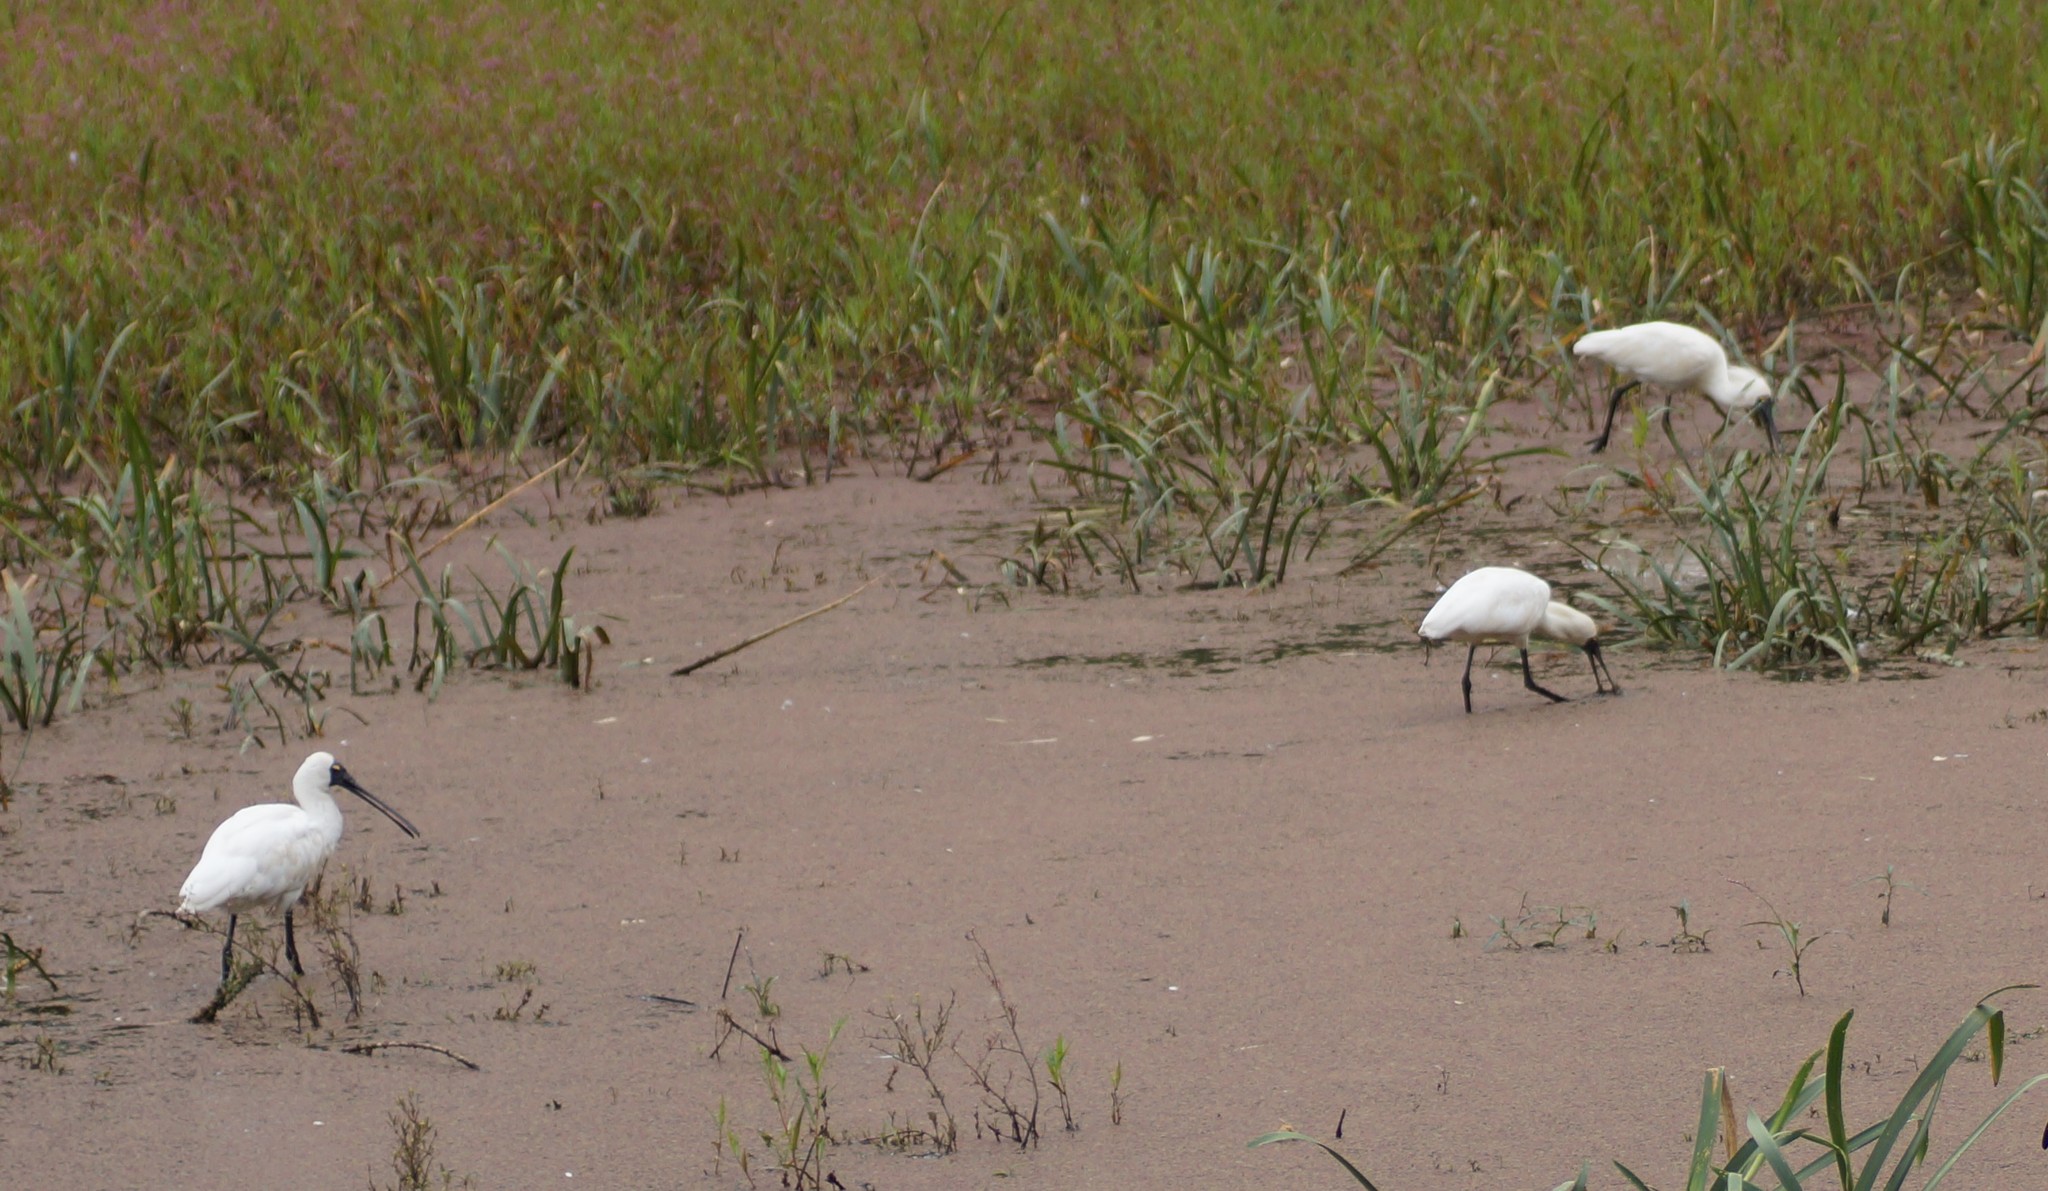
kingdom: Animalia
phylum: Chordata
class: Aves
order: Pelecaniformes
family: Threskiornithidae
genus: Platalea
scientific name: Platalea regia
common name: Royal spoonbill
